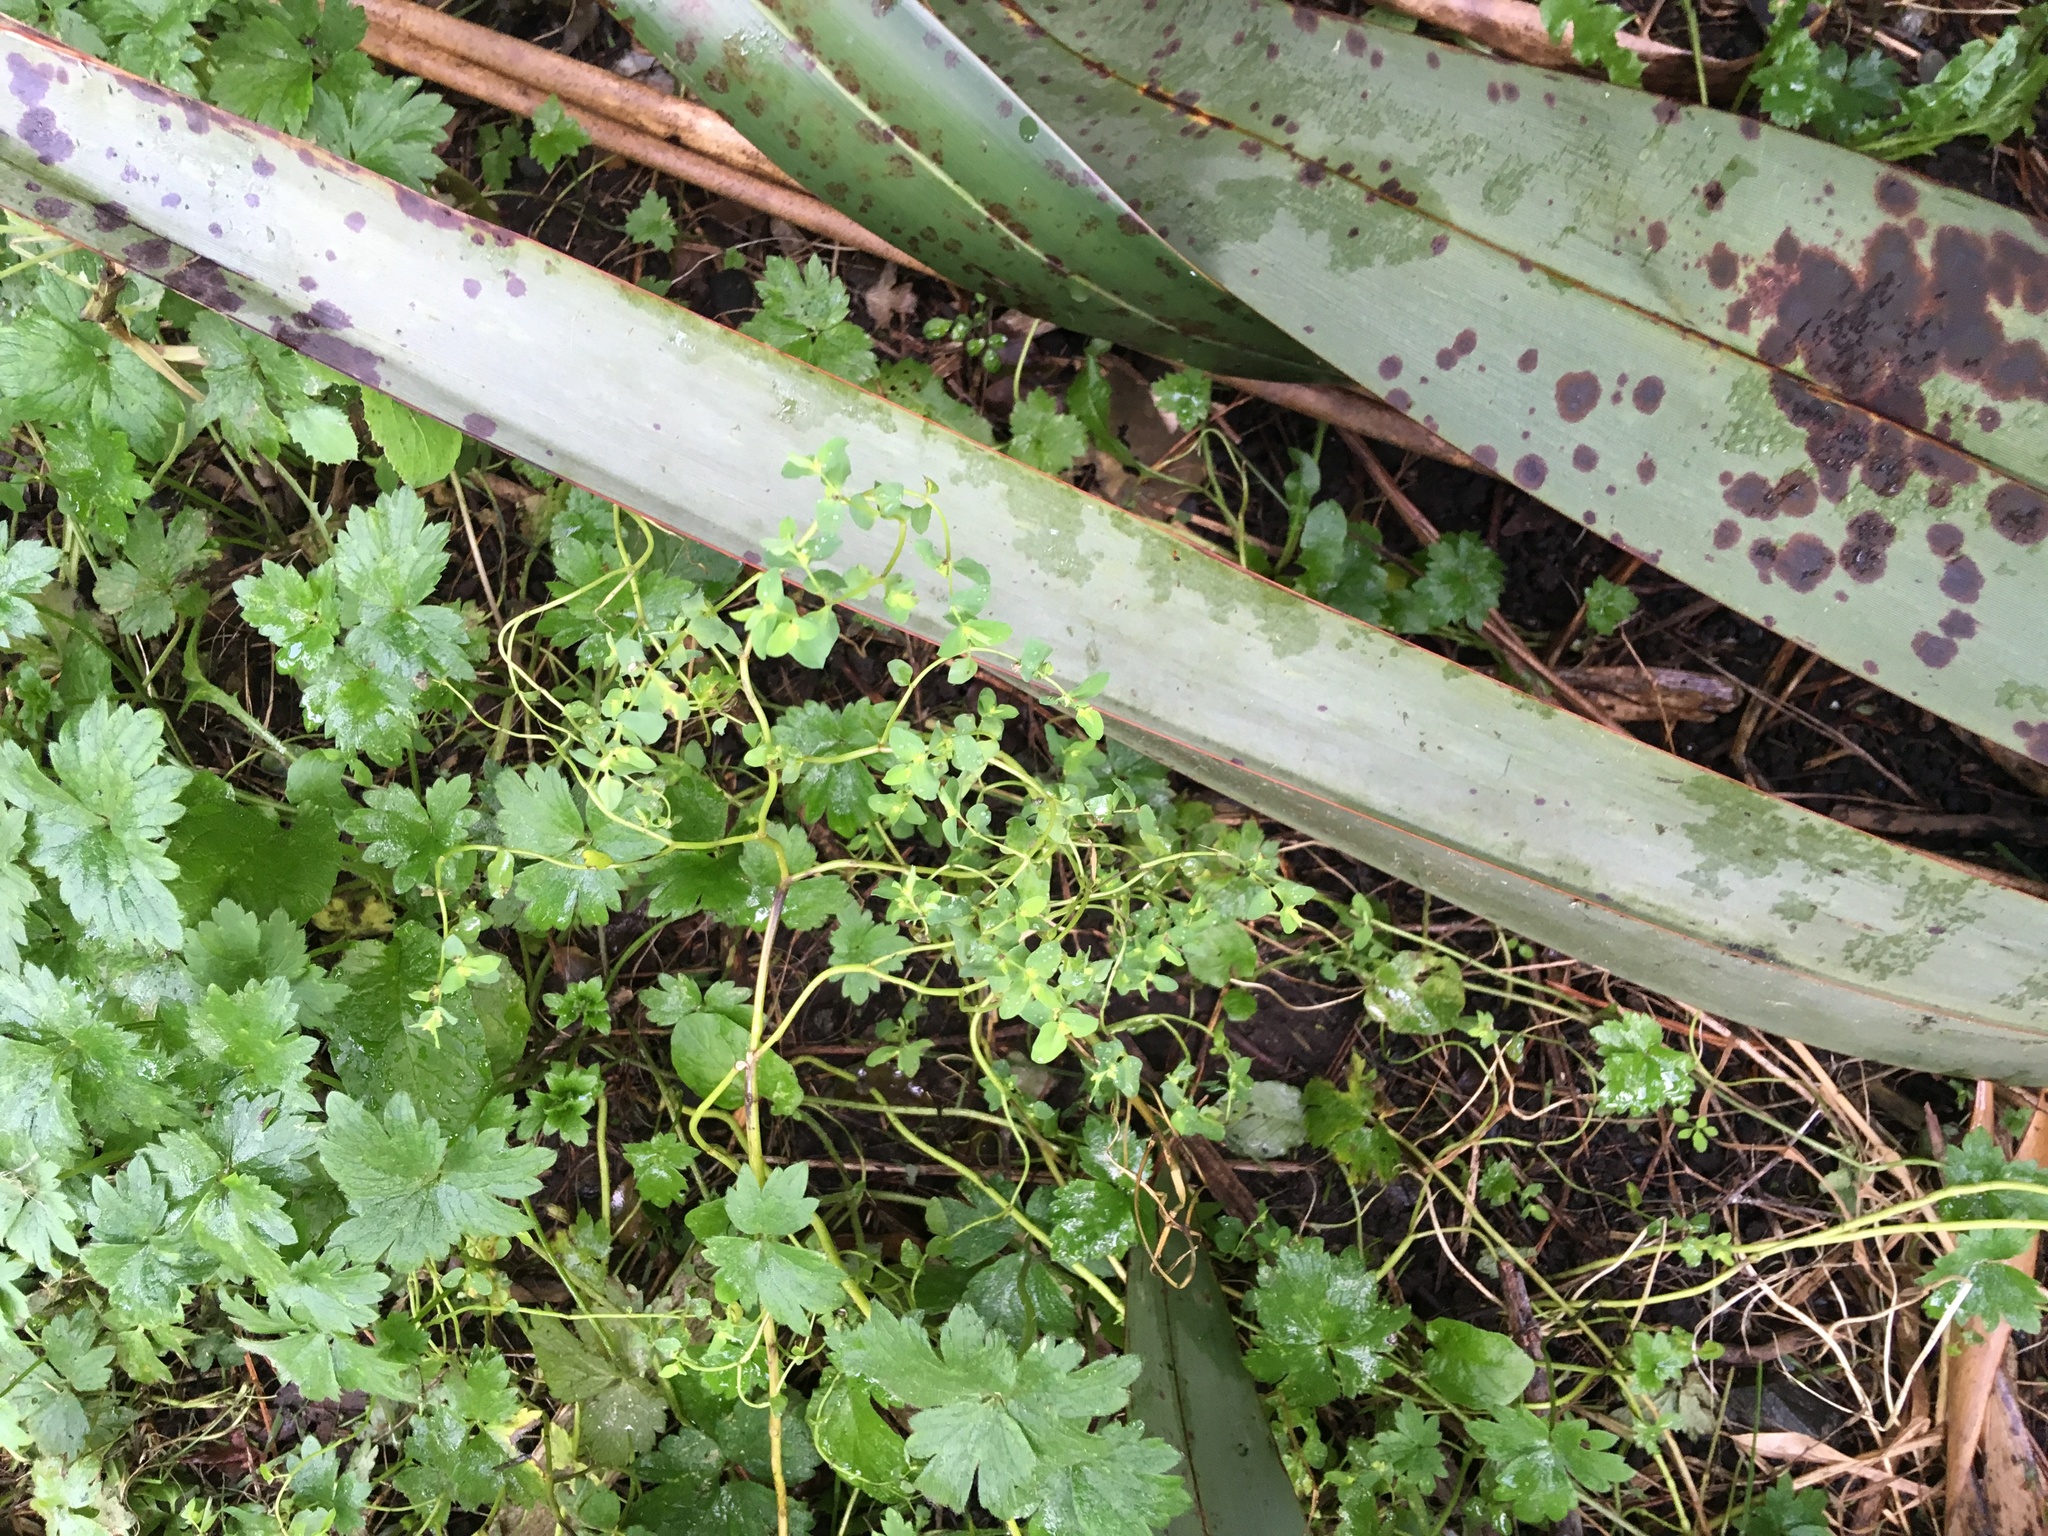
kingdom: Plantae
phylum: Tracheophyta
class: Liliopsida
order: Asparagales
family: Asphodelaceae
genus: Phormium
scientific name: Phormium tenax
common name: New zealand flax
